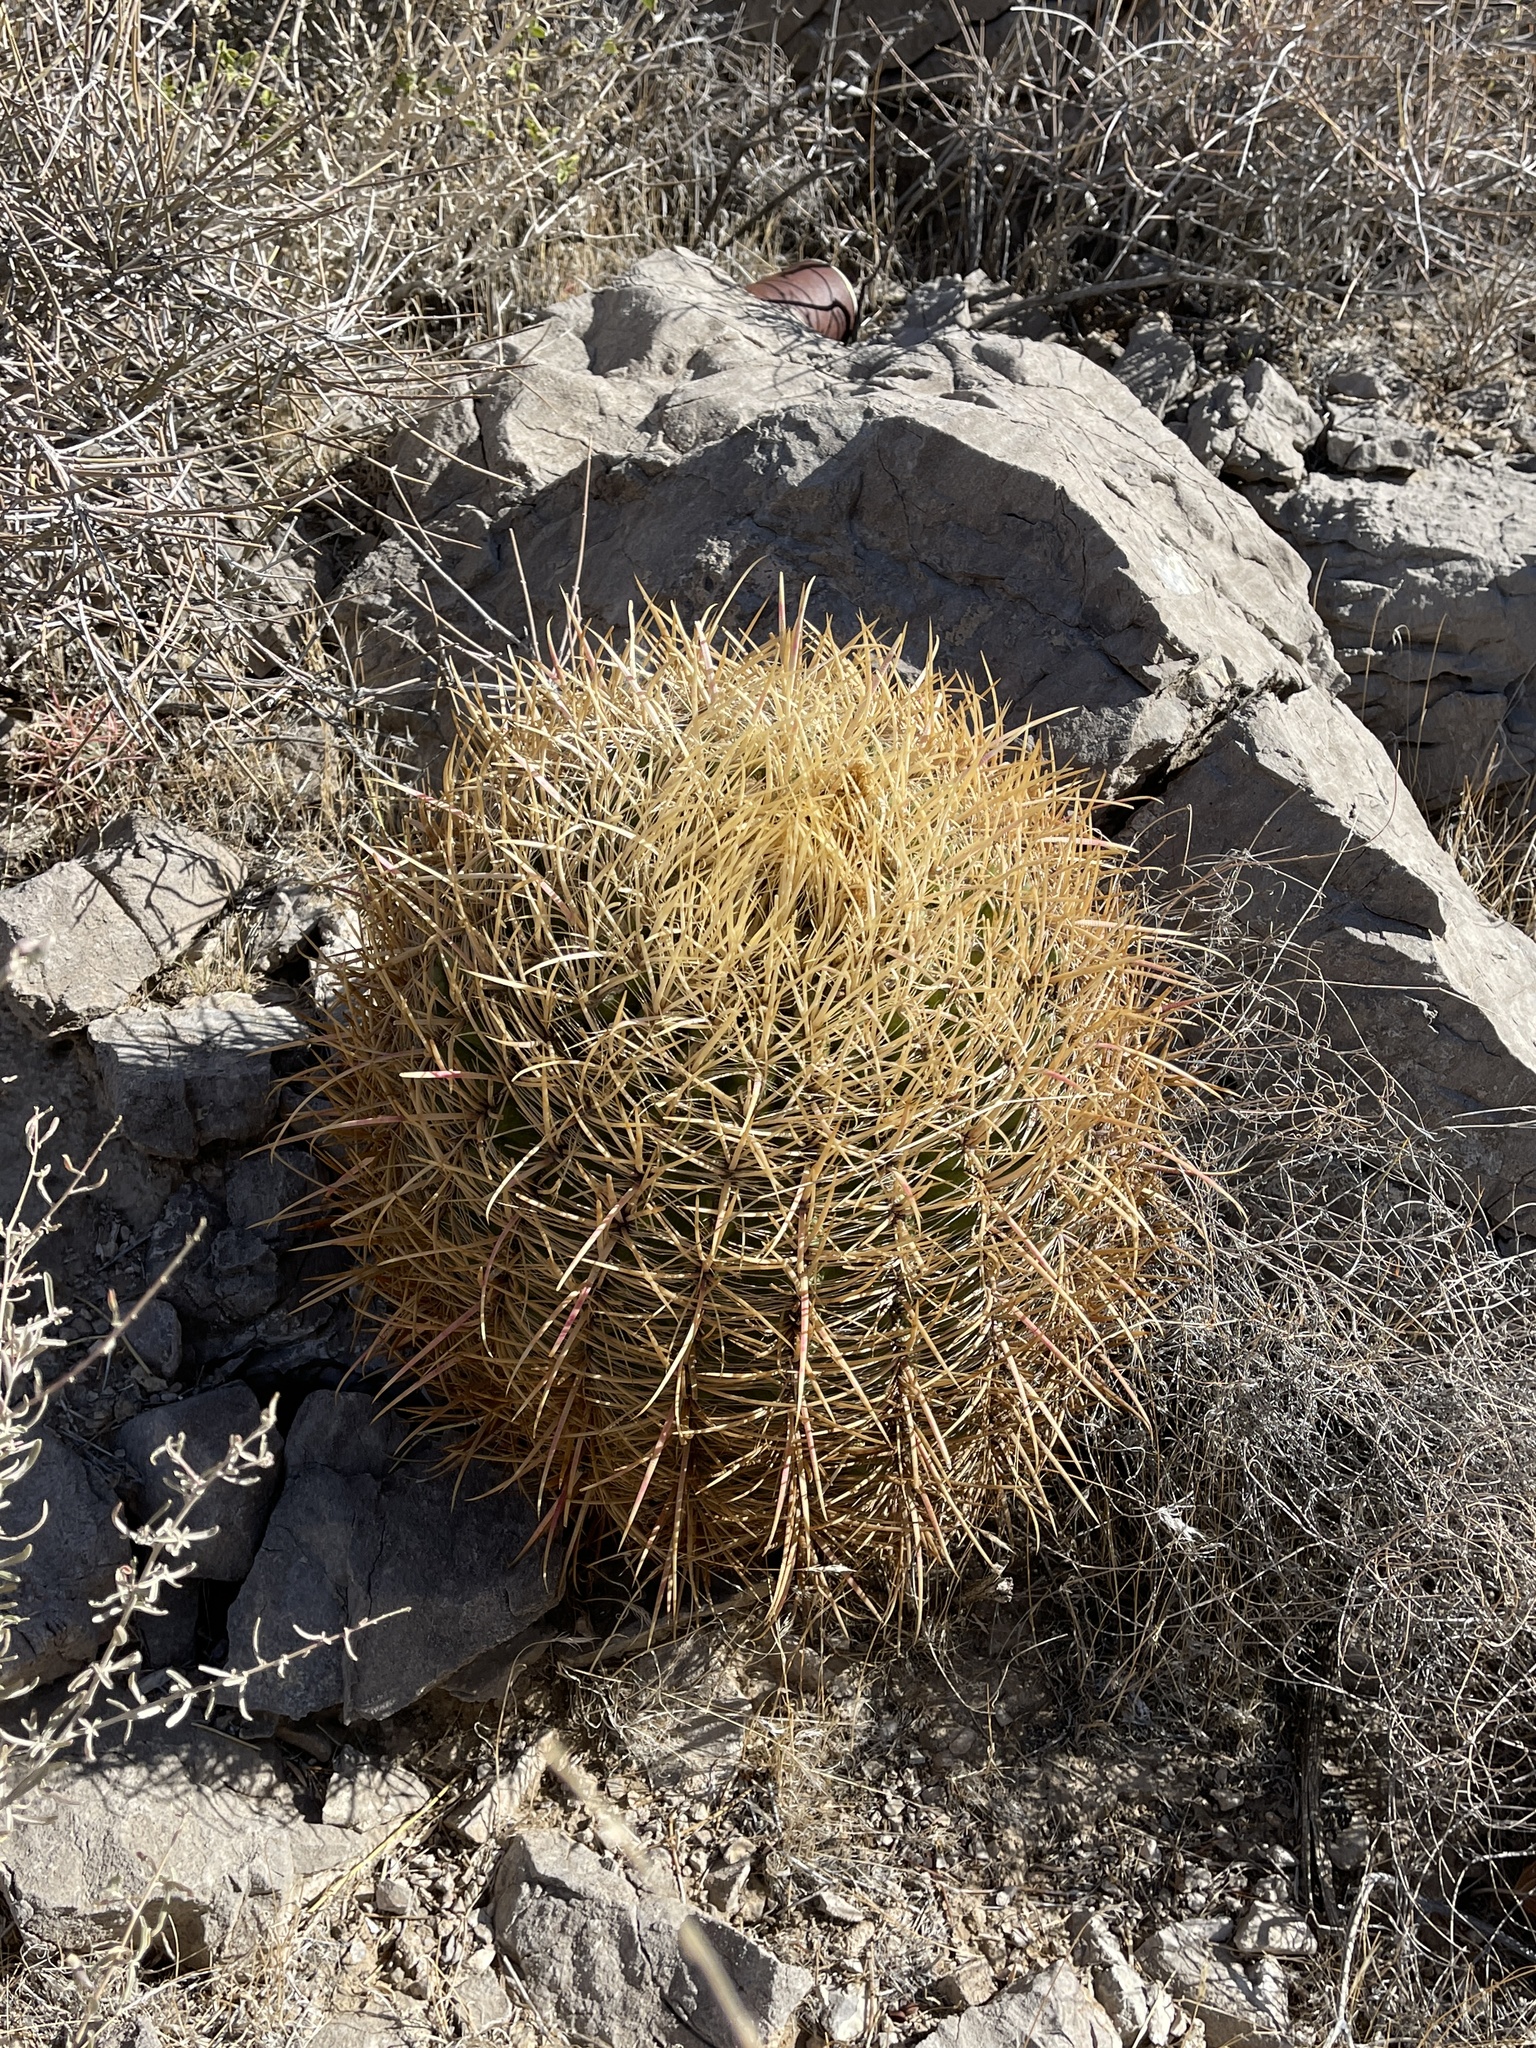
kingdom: Plantae
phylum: Tracheophyta
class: Magnoliopsida
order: Caryophyllales
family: Cactaceae
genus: Ferocactus
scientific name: Ferocactus cylindraceus
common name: California barrel cactus
